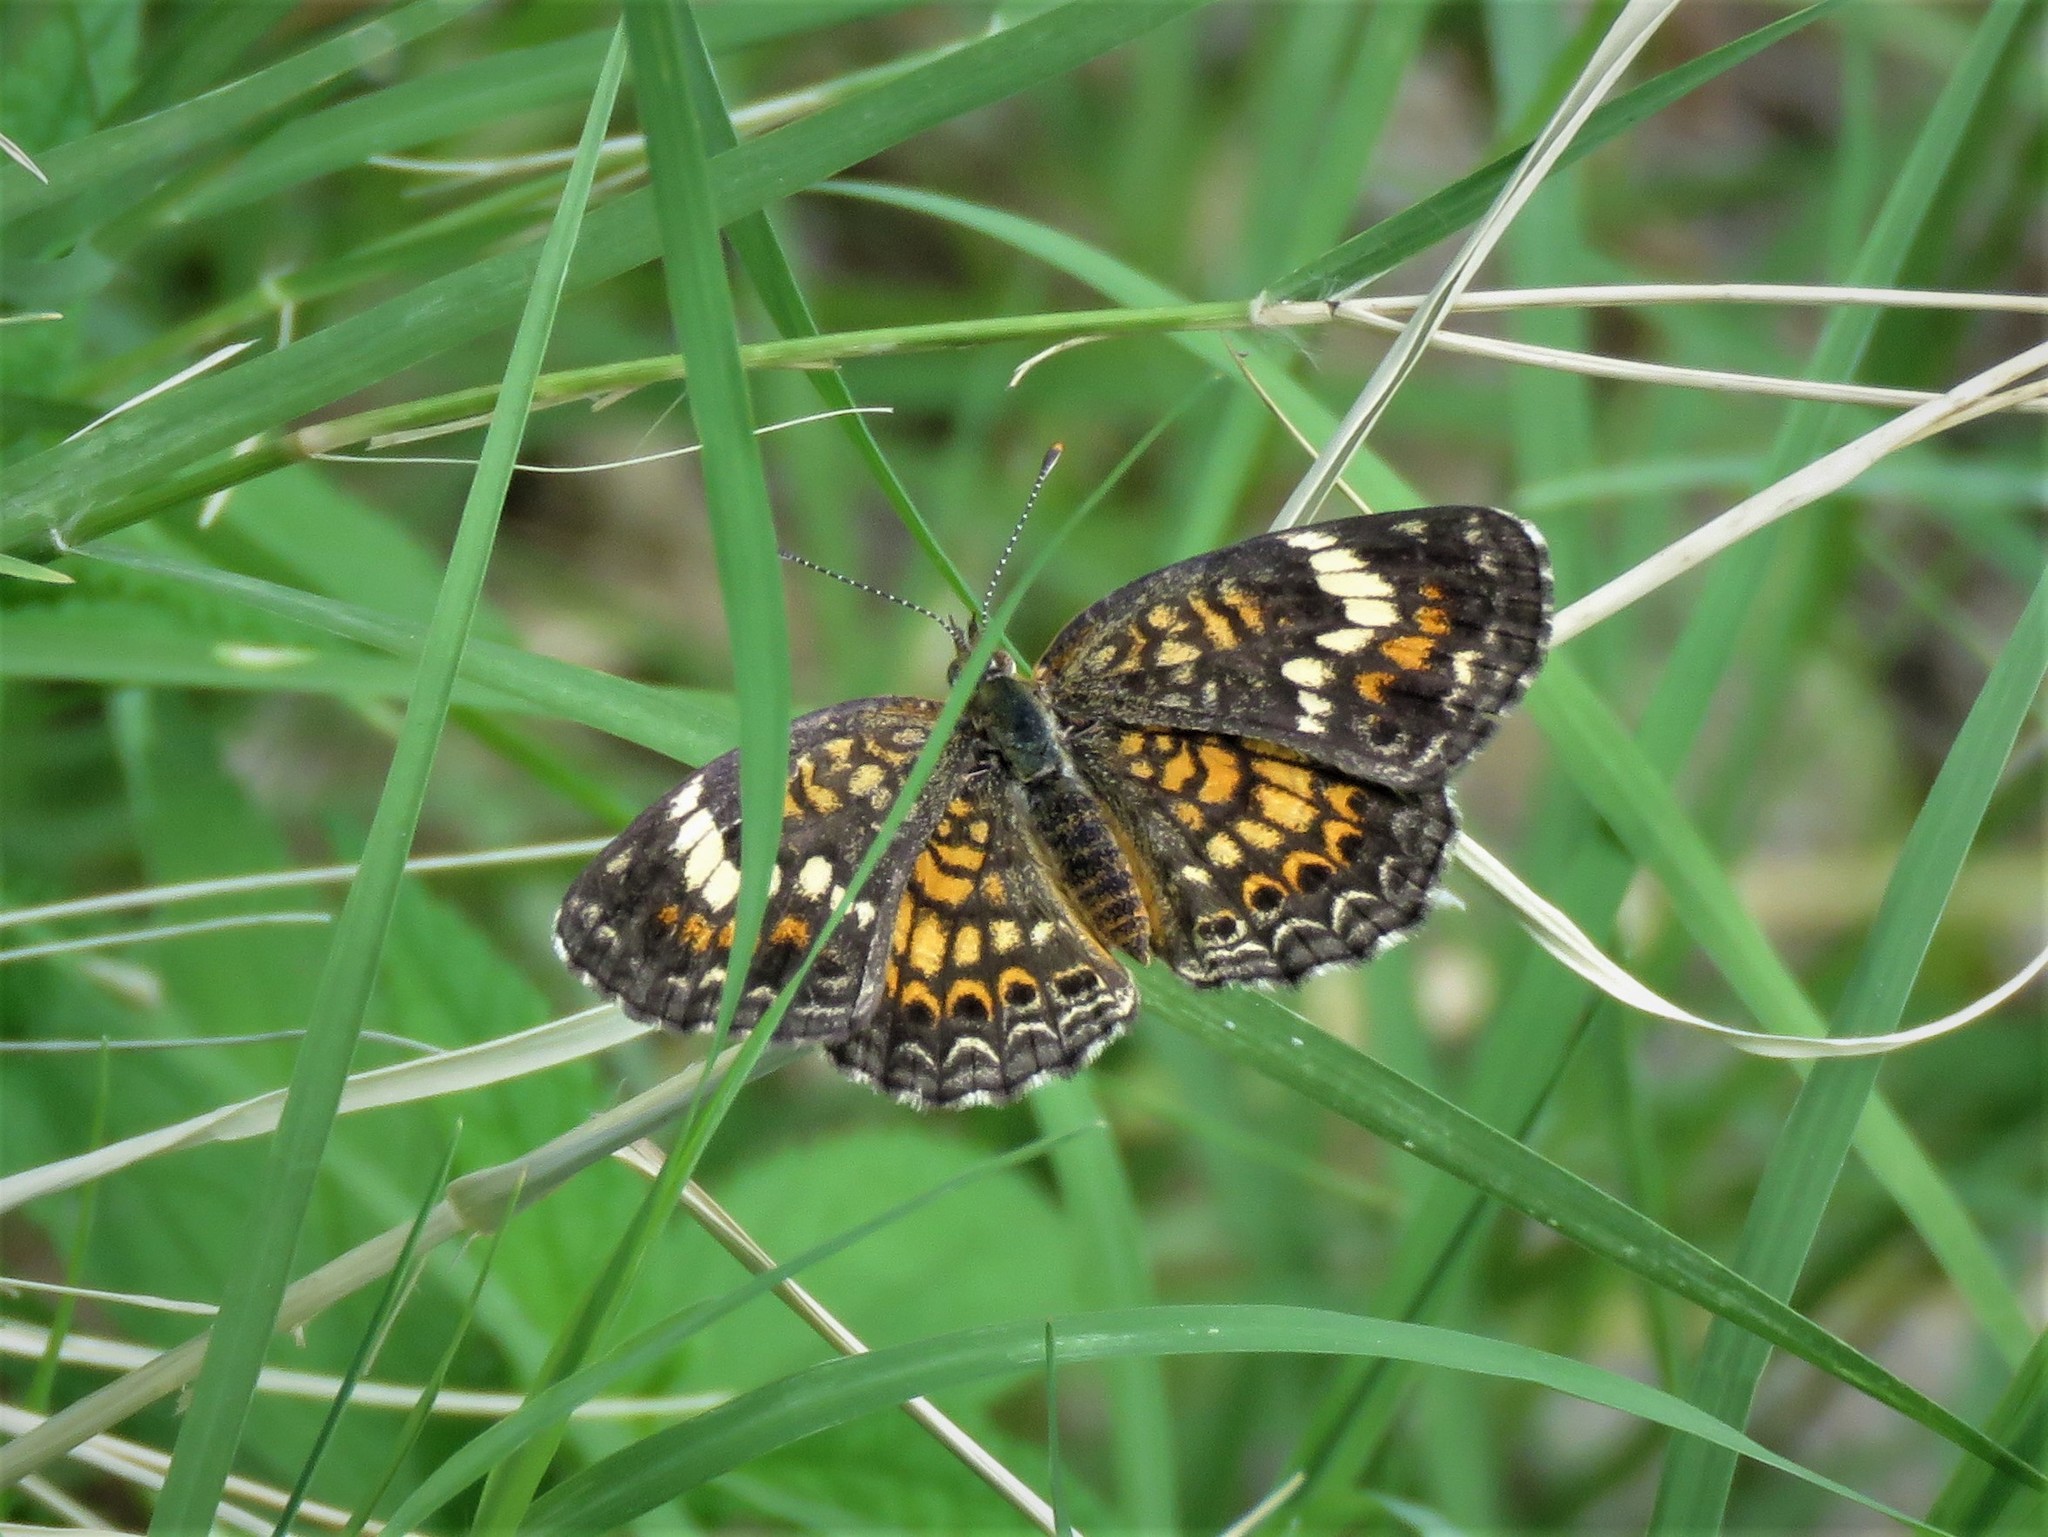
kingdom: Animalia
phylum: Arthropoda
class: Insecta
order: Lepidoptera
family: Nymphalidae
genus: Phyciodes
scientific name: Phyciodes tharos
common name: Pearl crescent
